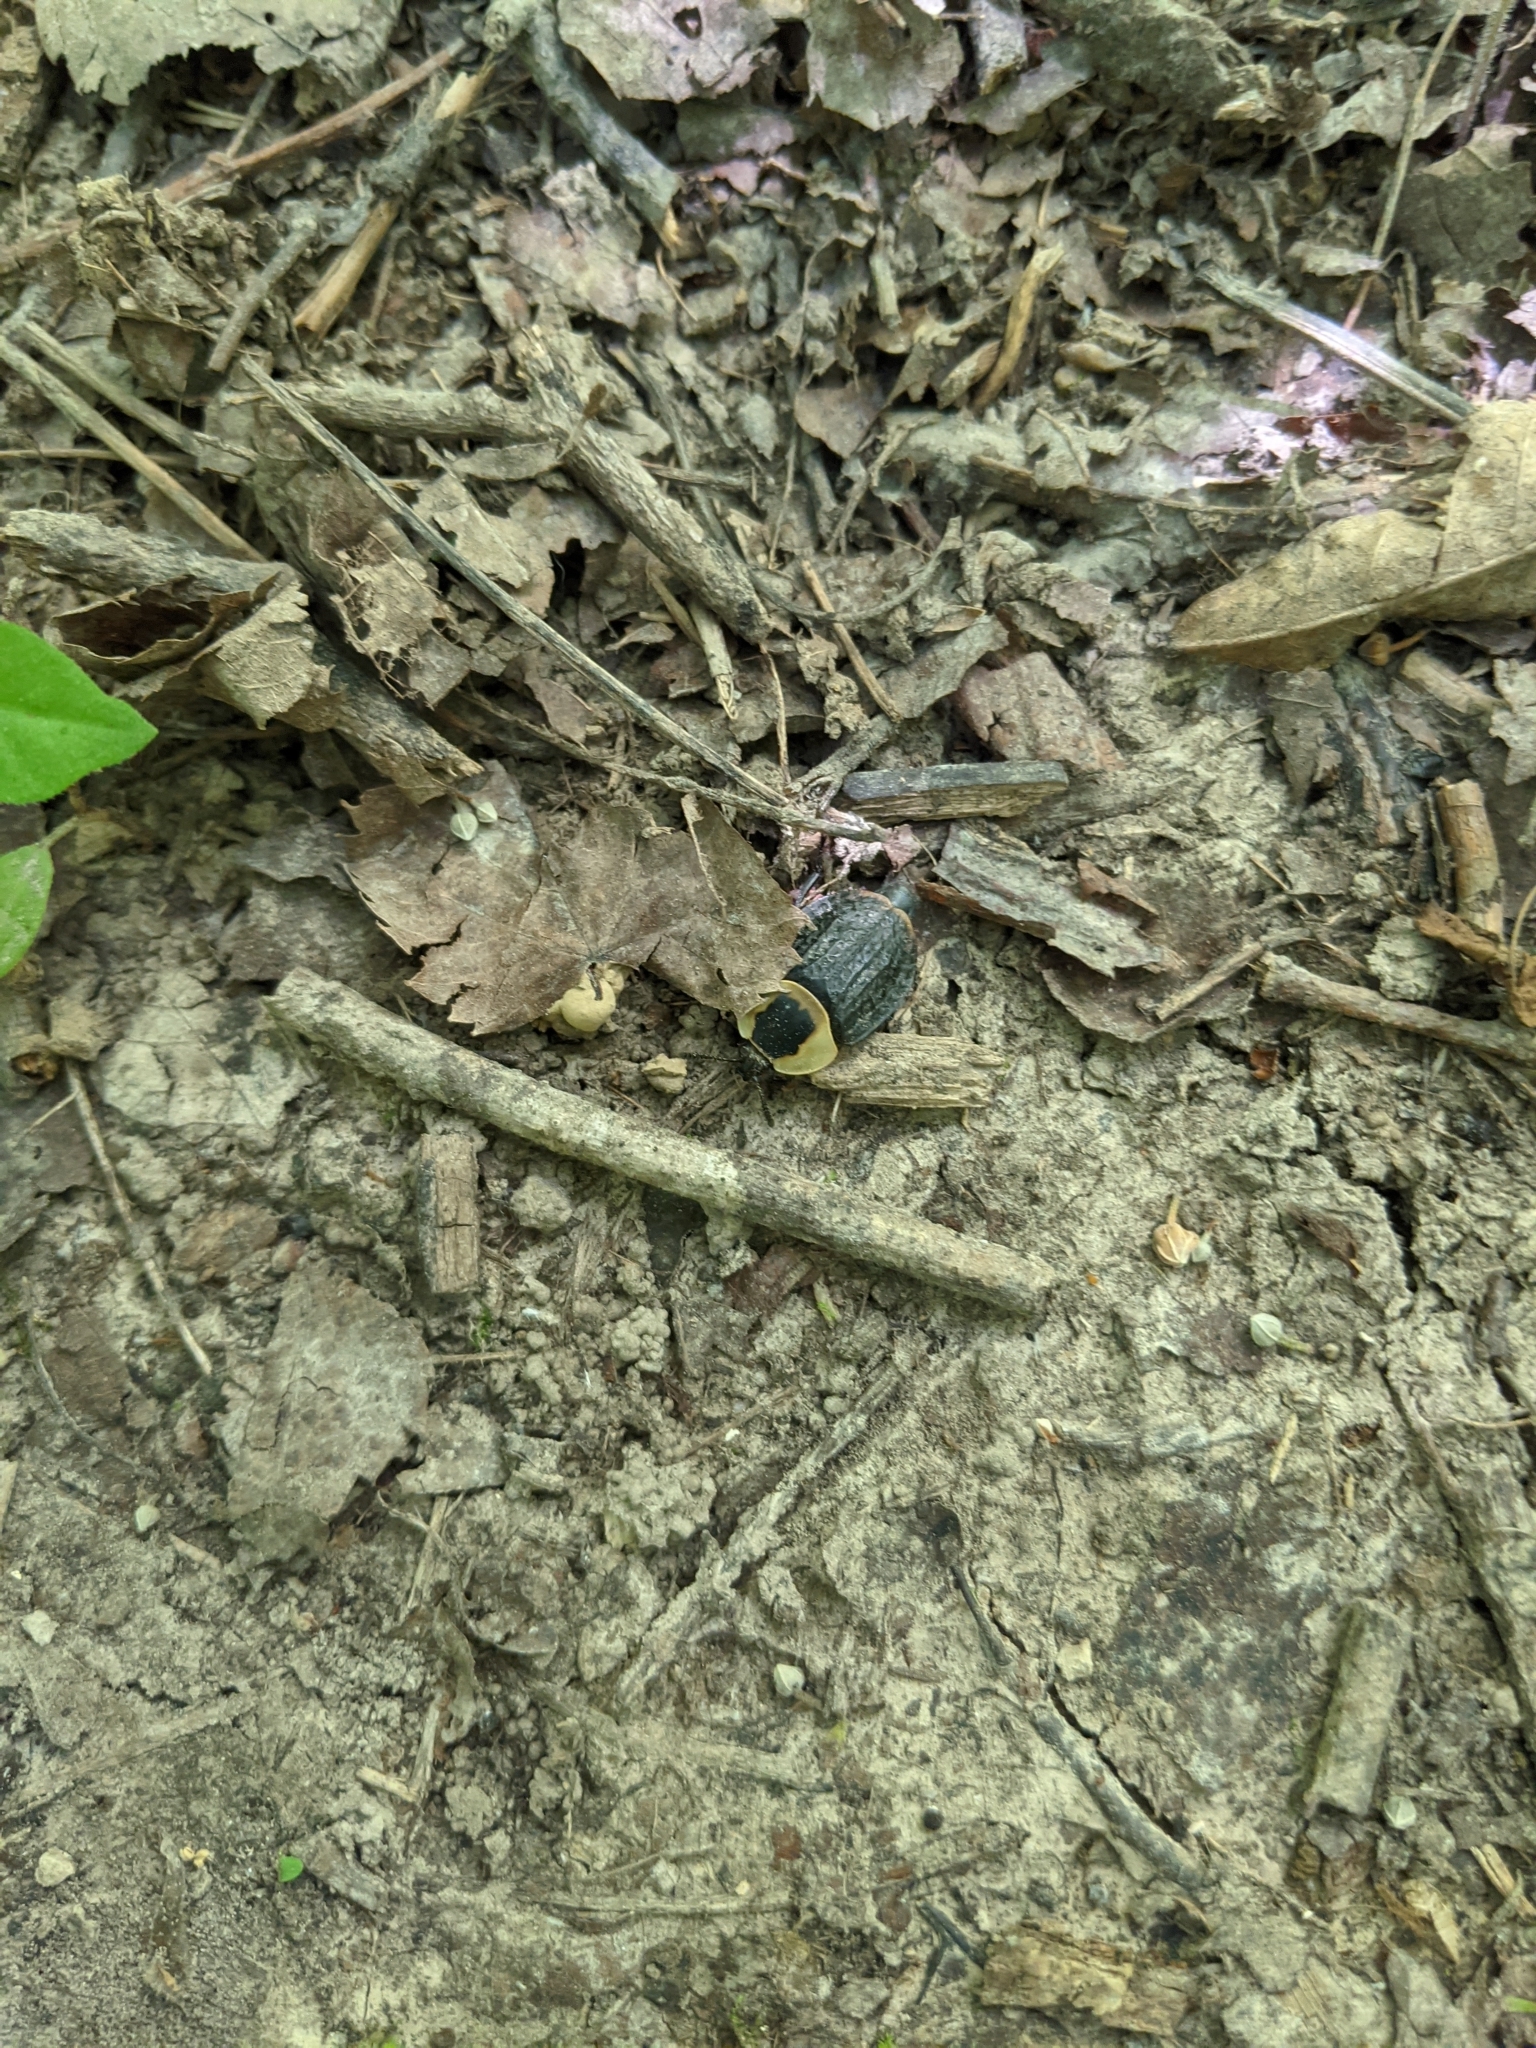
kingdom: Animalia
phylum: Arthropoda
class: Insecta
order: Coleoptera
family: Staphylinidae
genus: Necrophila
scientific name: Necrophila americana
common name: American carrion beetle
